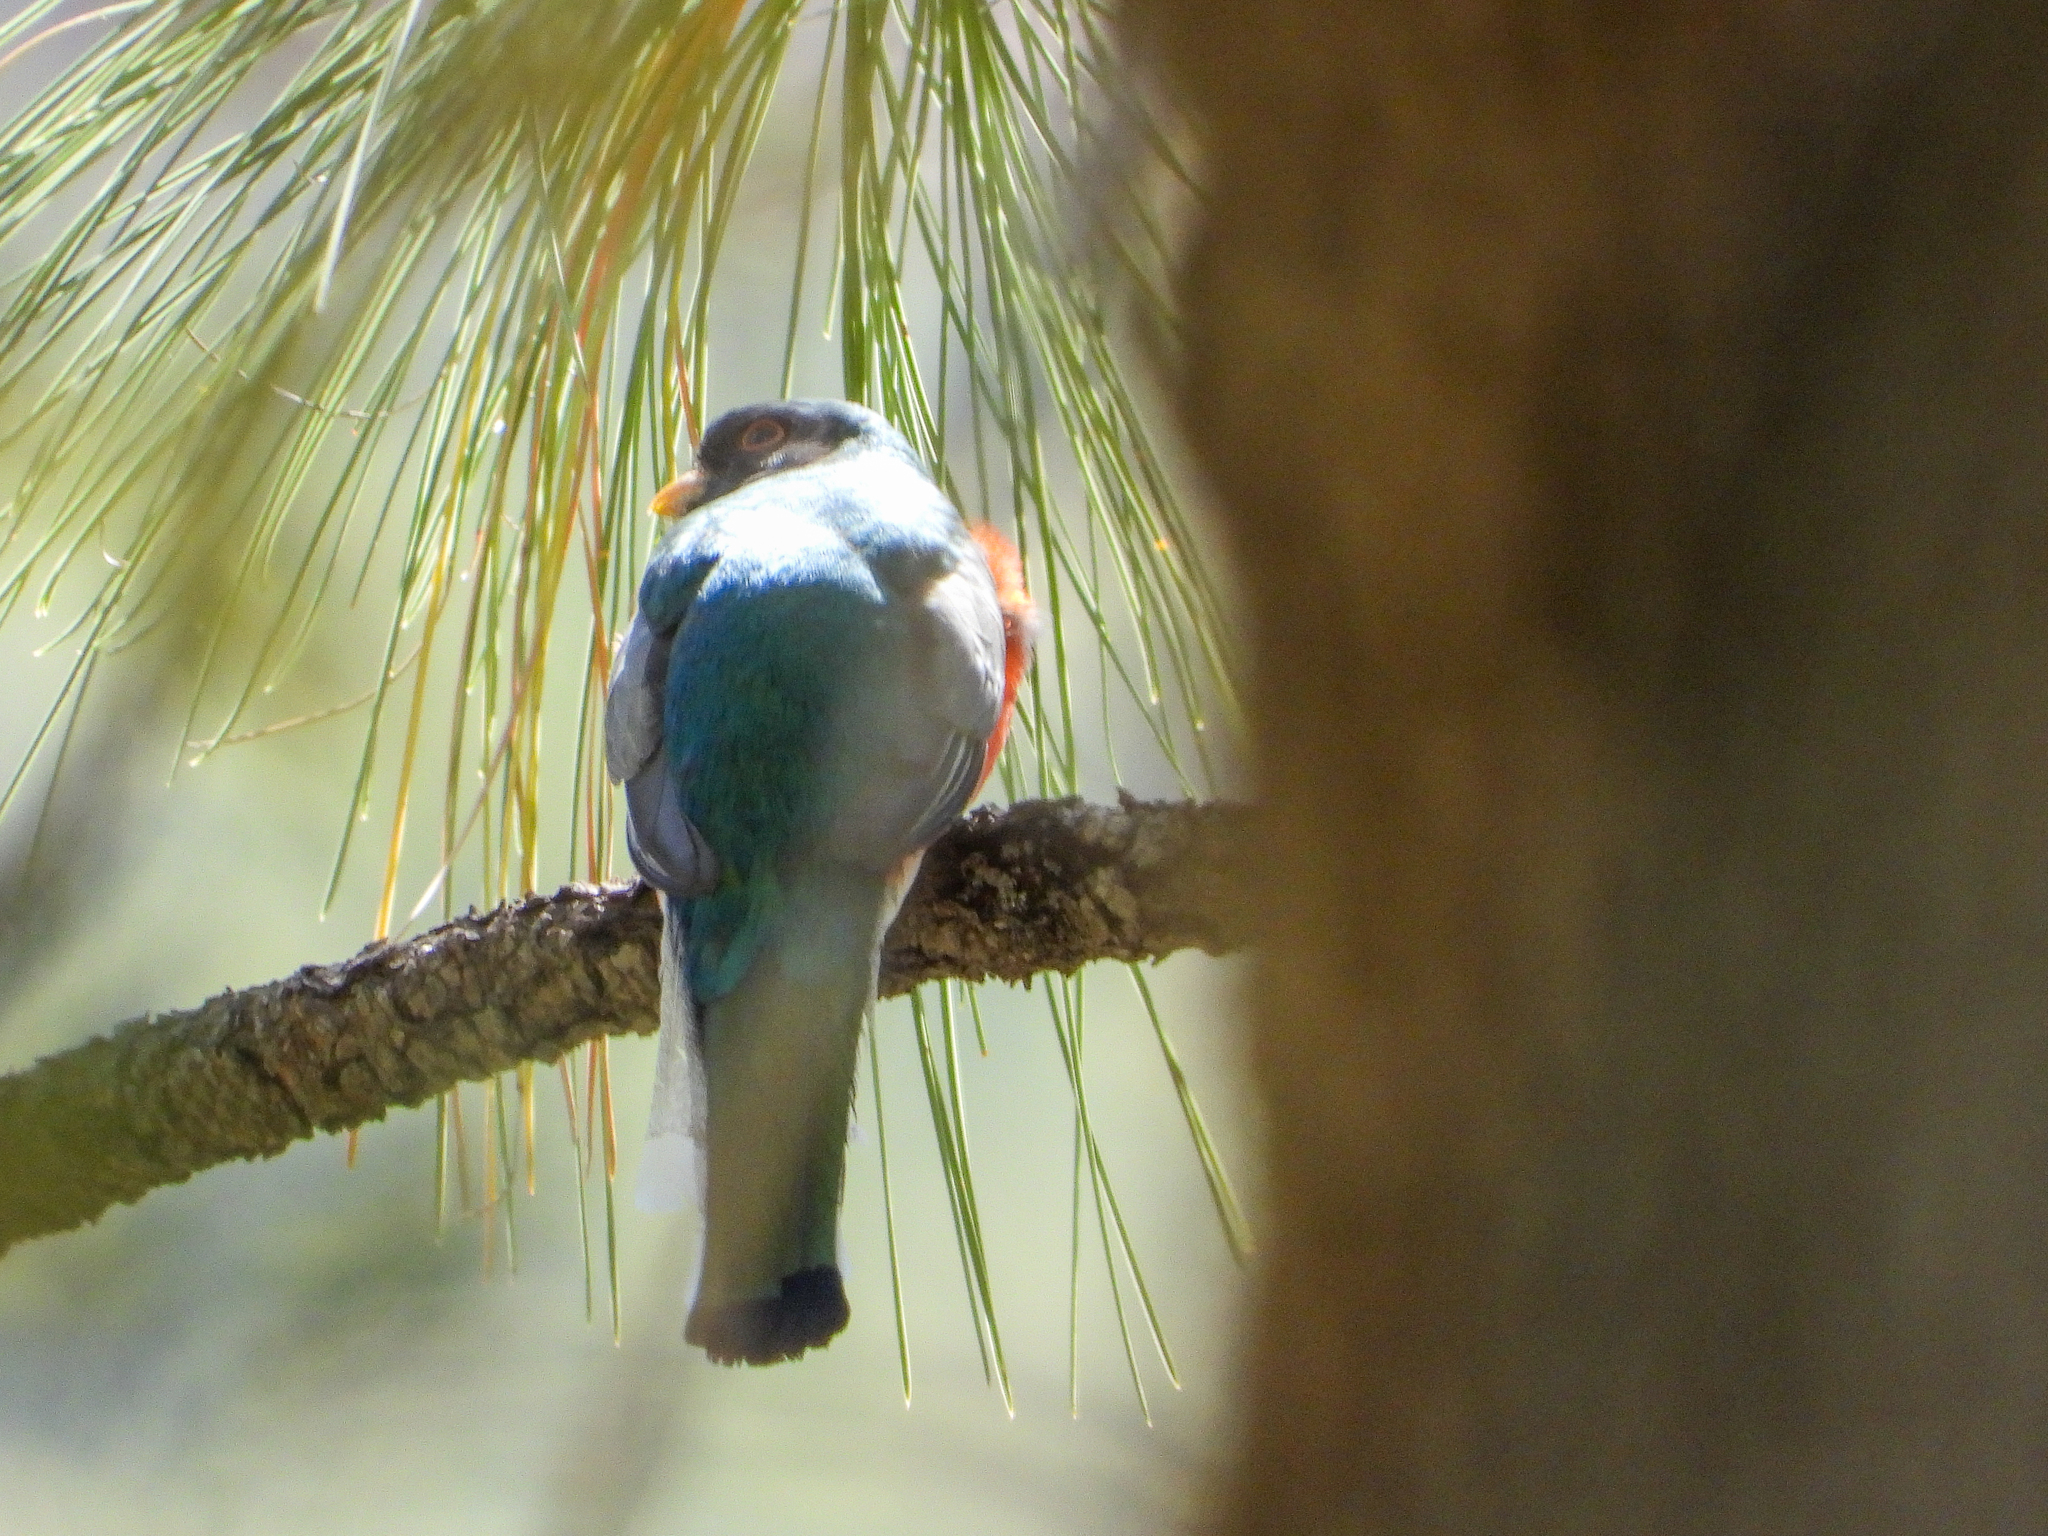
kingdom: Animalia
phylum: Chordata
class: Aves
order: Trogoniformes
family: Trogonidae
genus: Trogon
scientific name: Trogon elegans
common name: Elegant trogon
